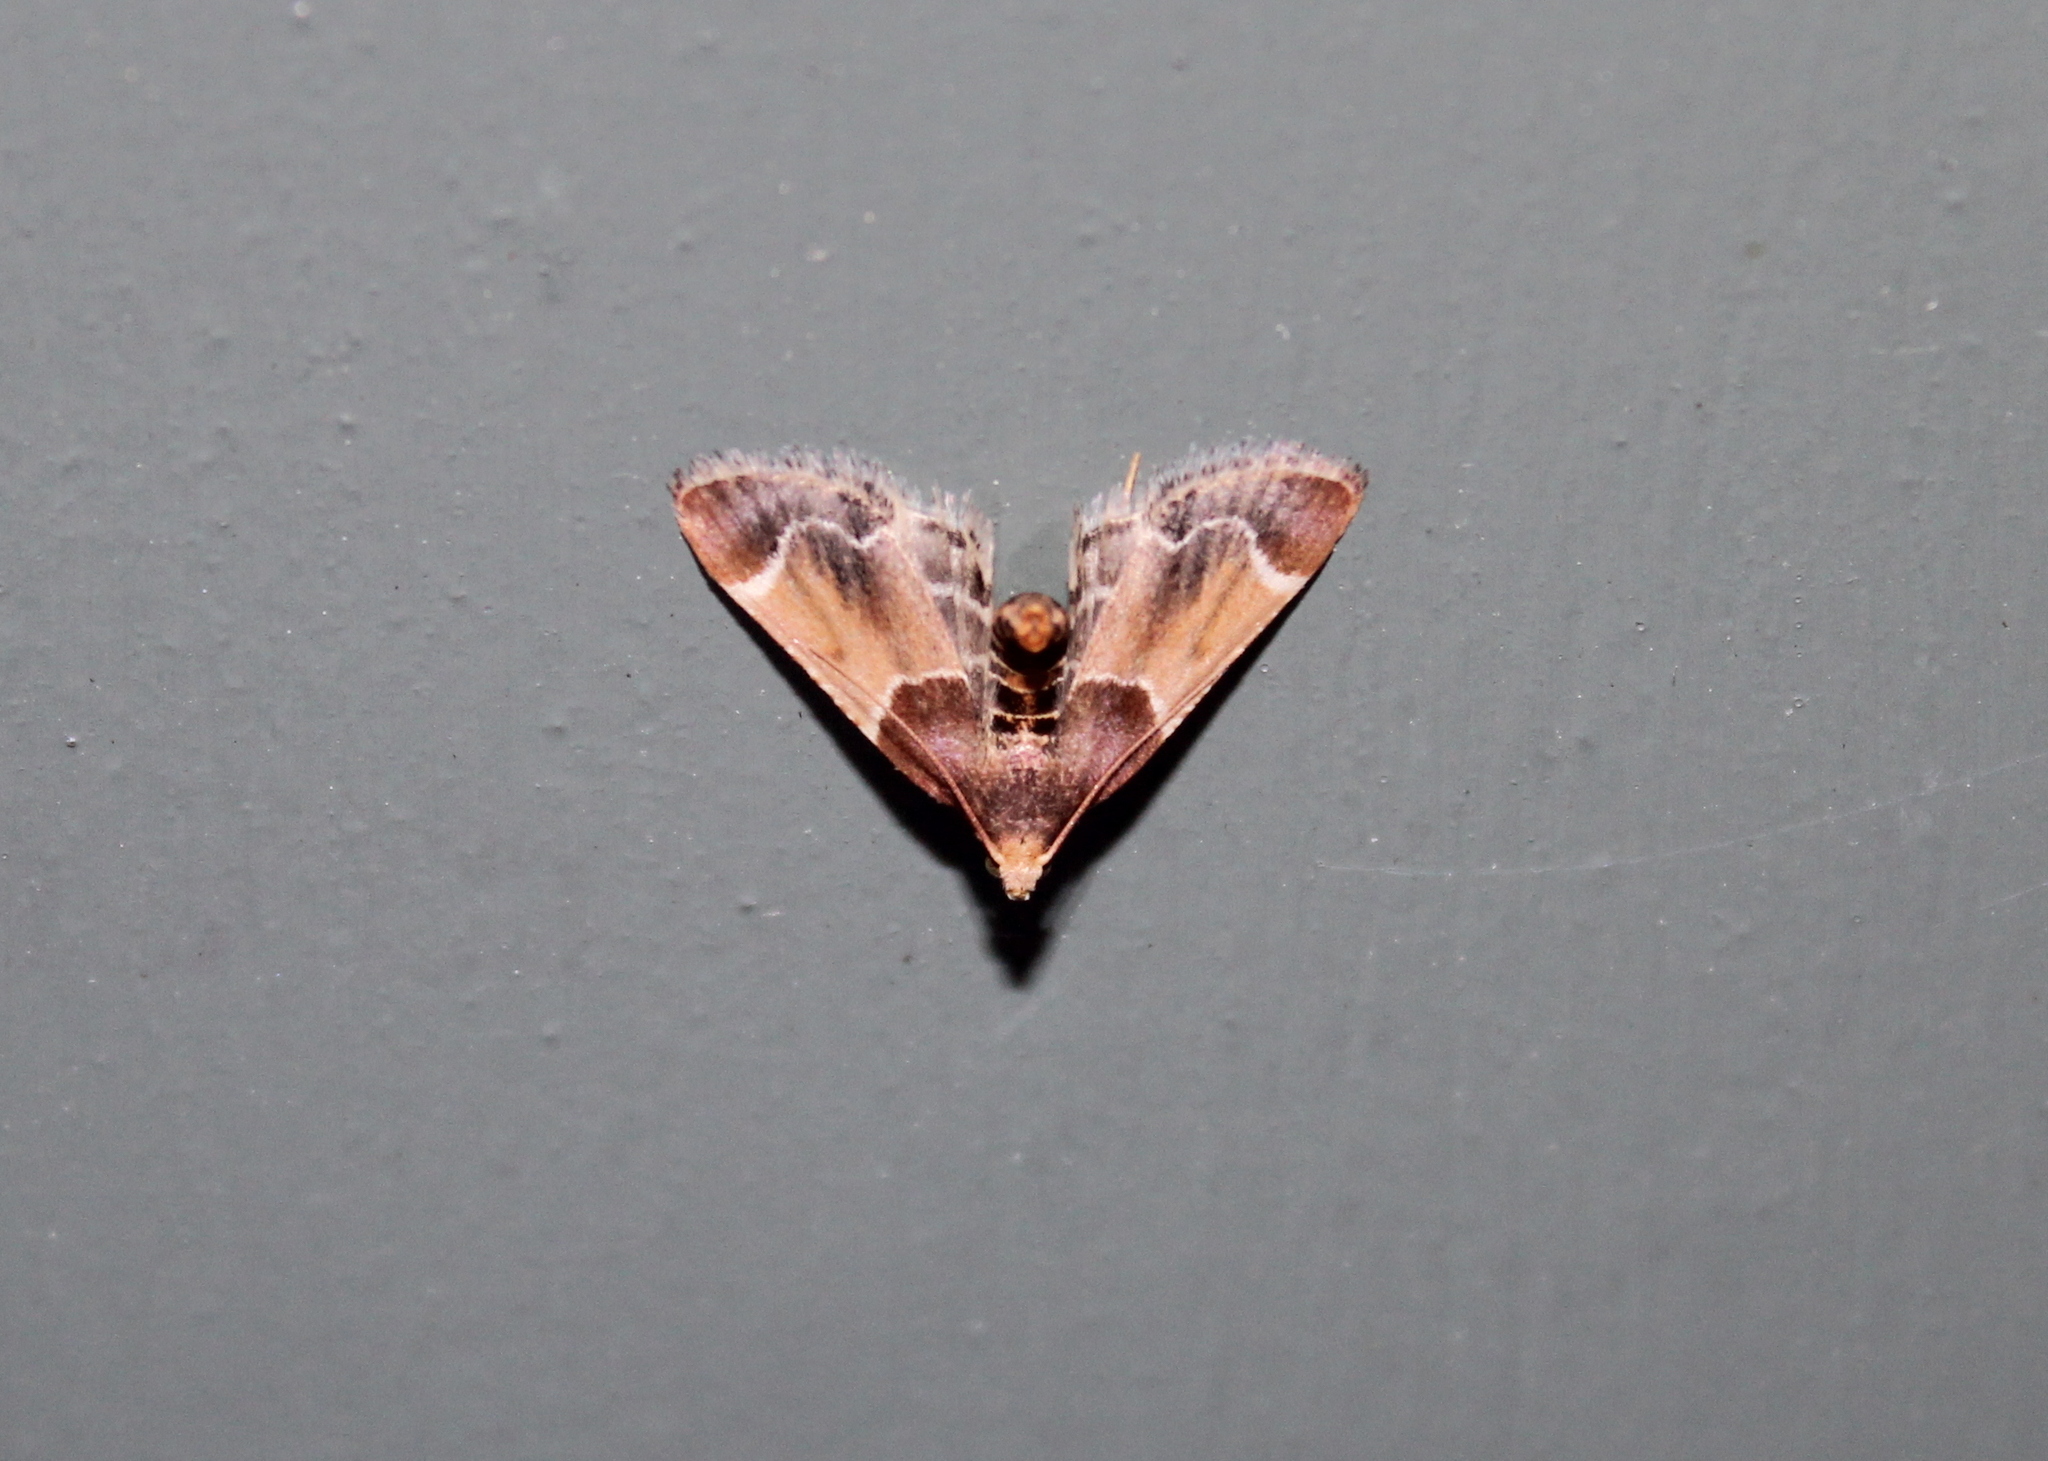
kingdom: Animalia
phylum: Arthropoda
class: Insecta
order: Lepidoptera
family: Pyralidae
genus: Pyralis
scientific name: Pyralis farinalis
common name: Meal moth
